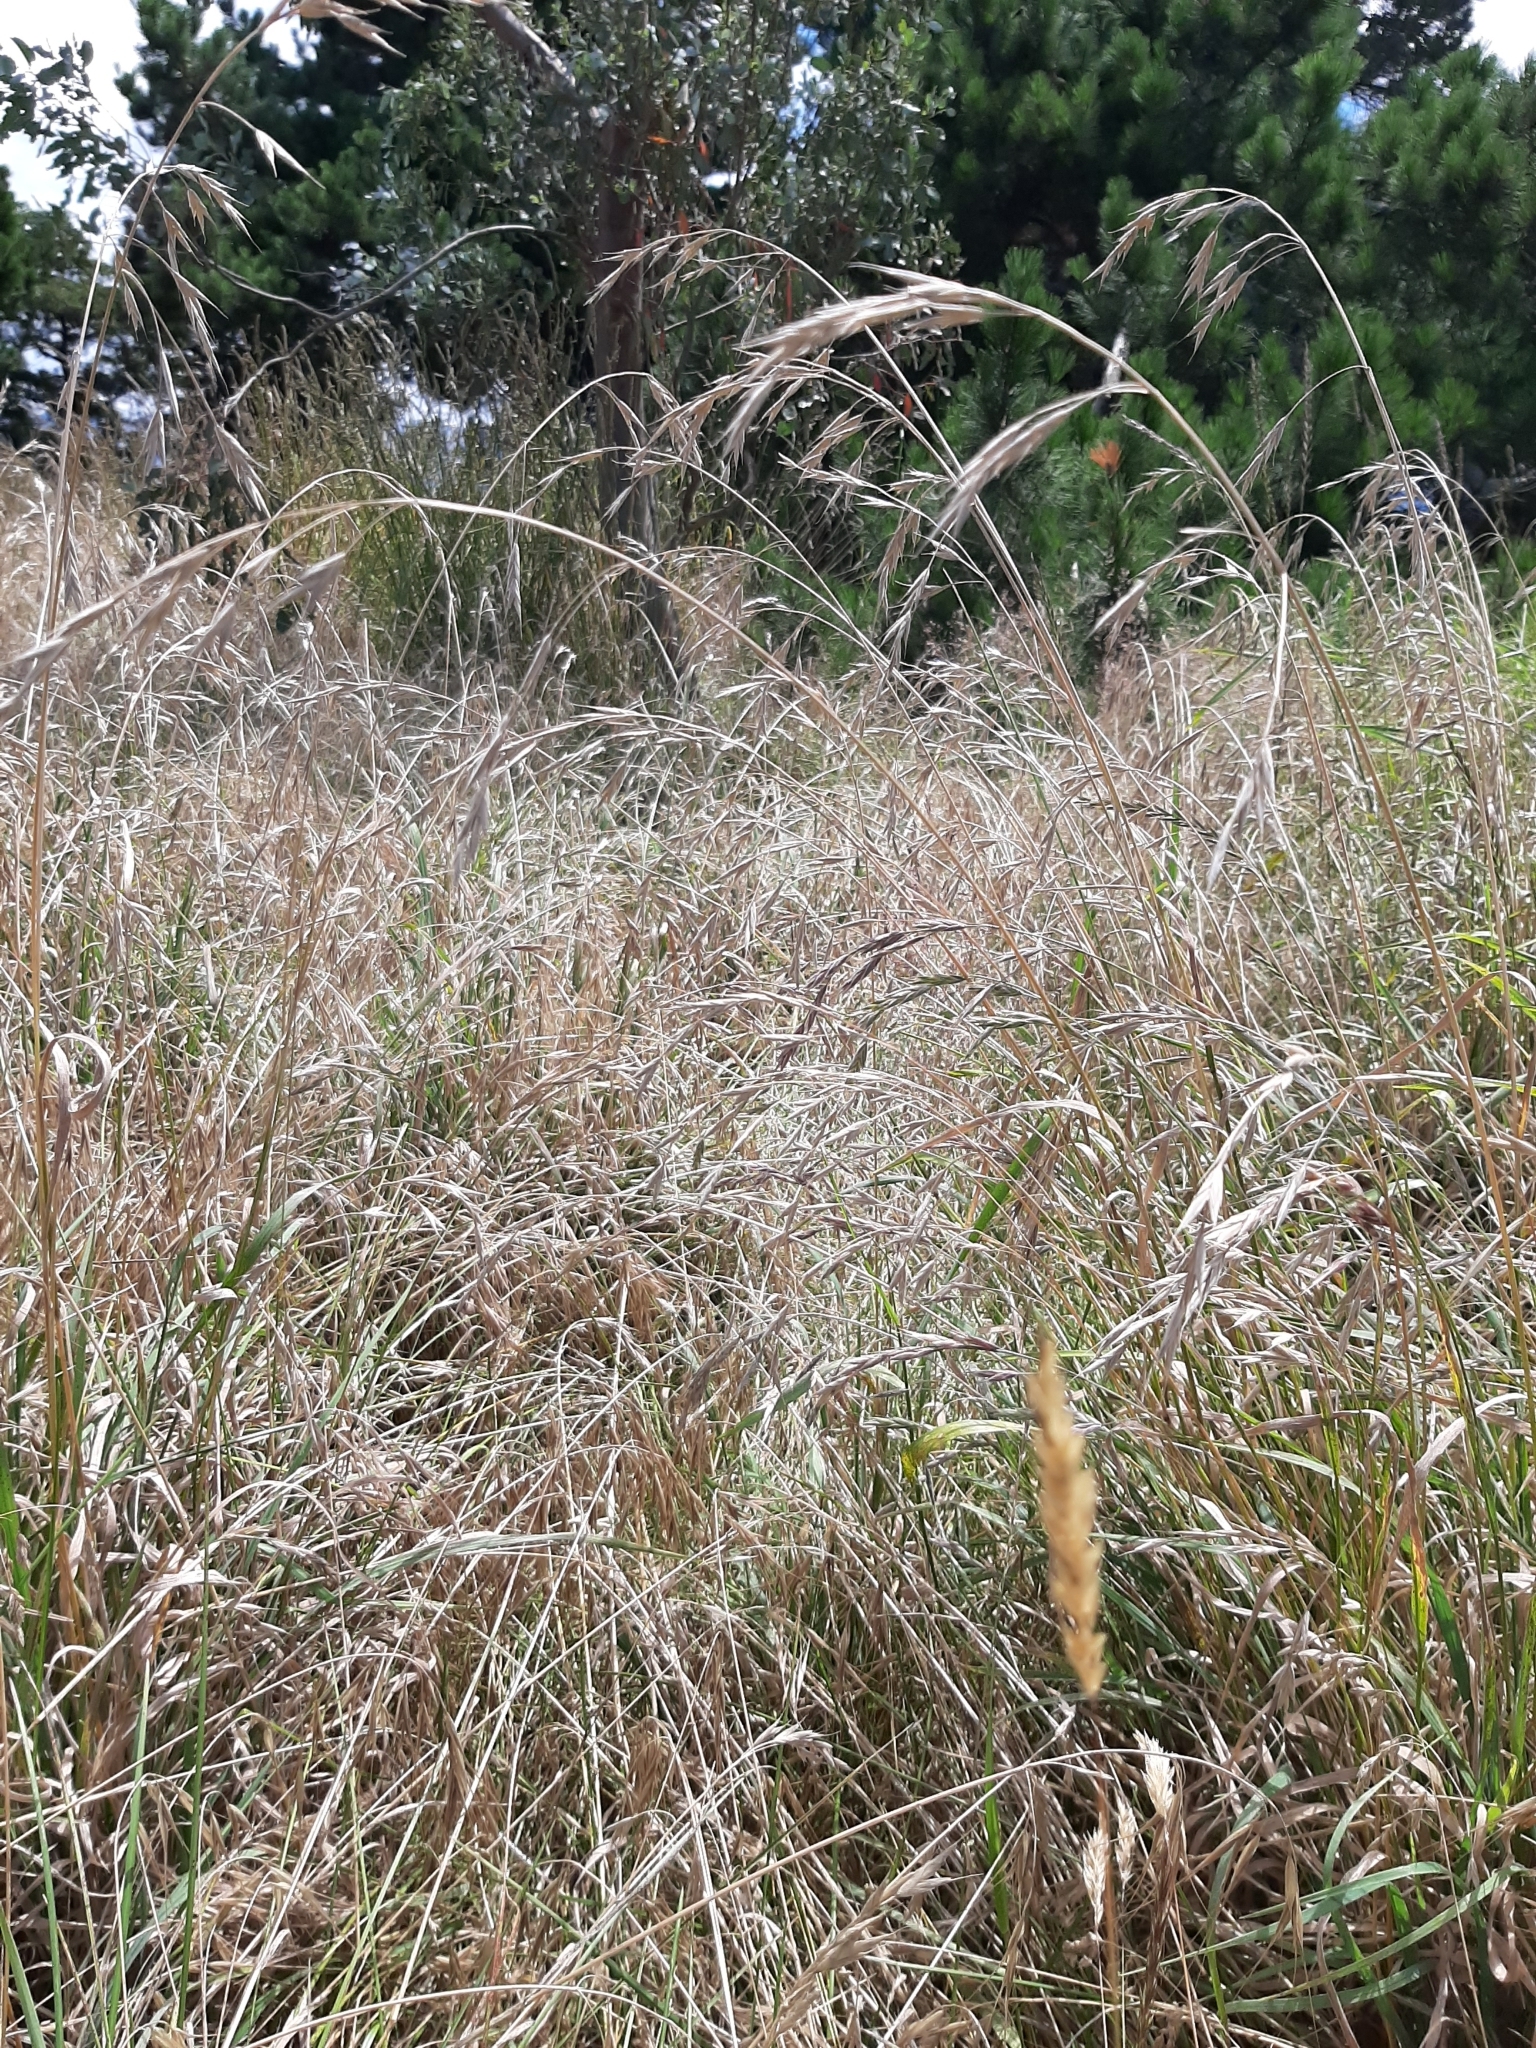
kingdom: Plantae
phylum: Tracheophyta
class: Liliopsida
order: Poales
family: Poaceae
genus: Bromus
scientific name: Bromus catharticus
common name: Rescuegrass
